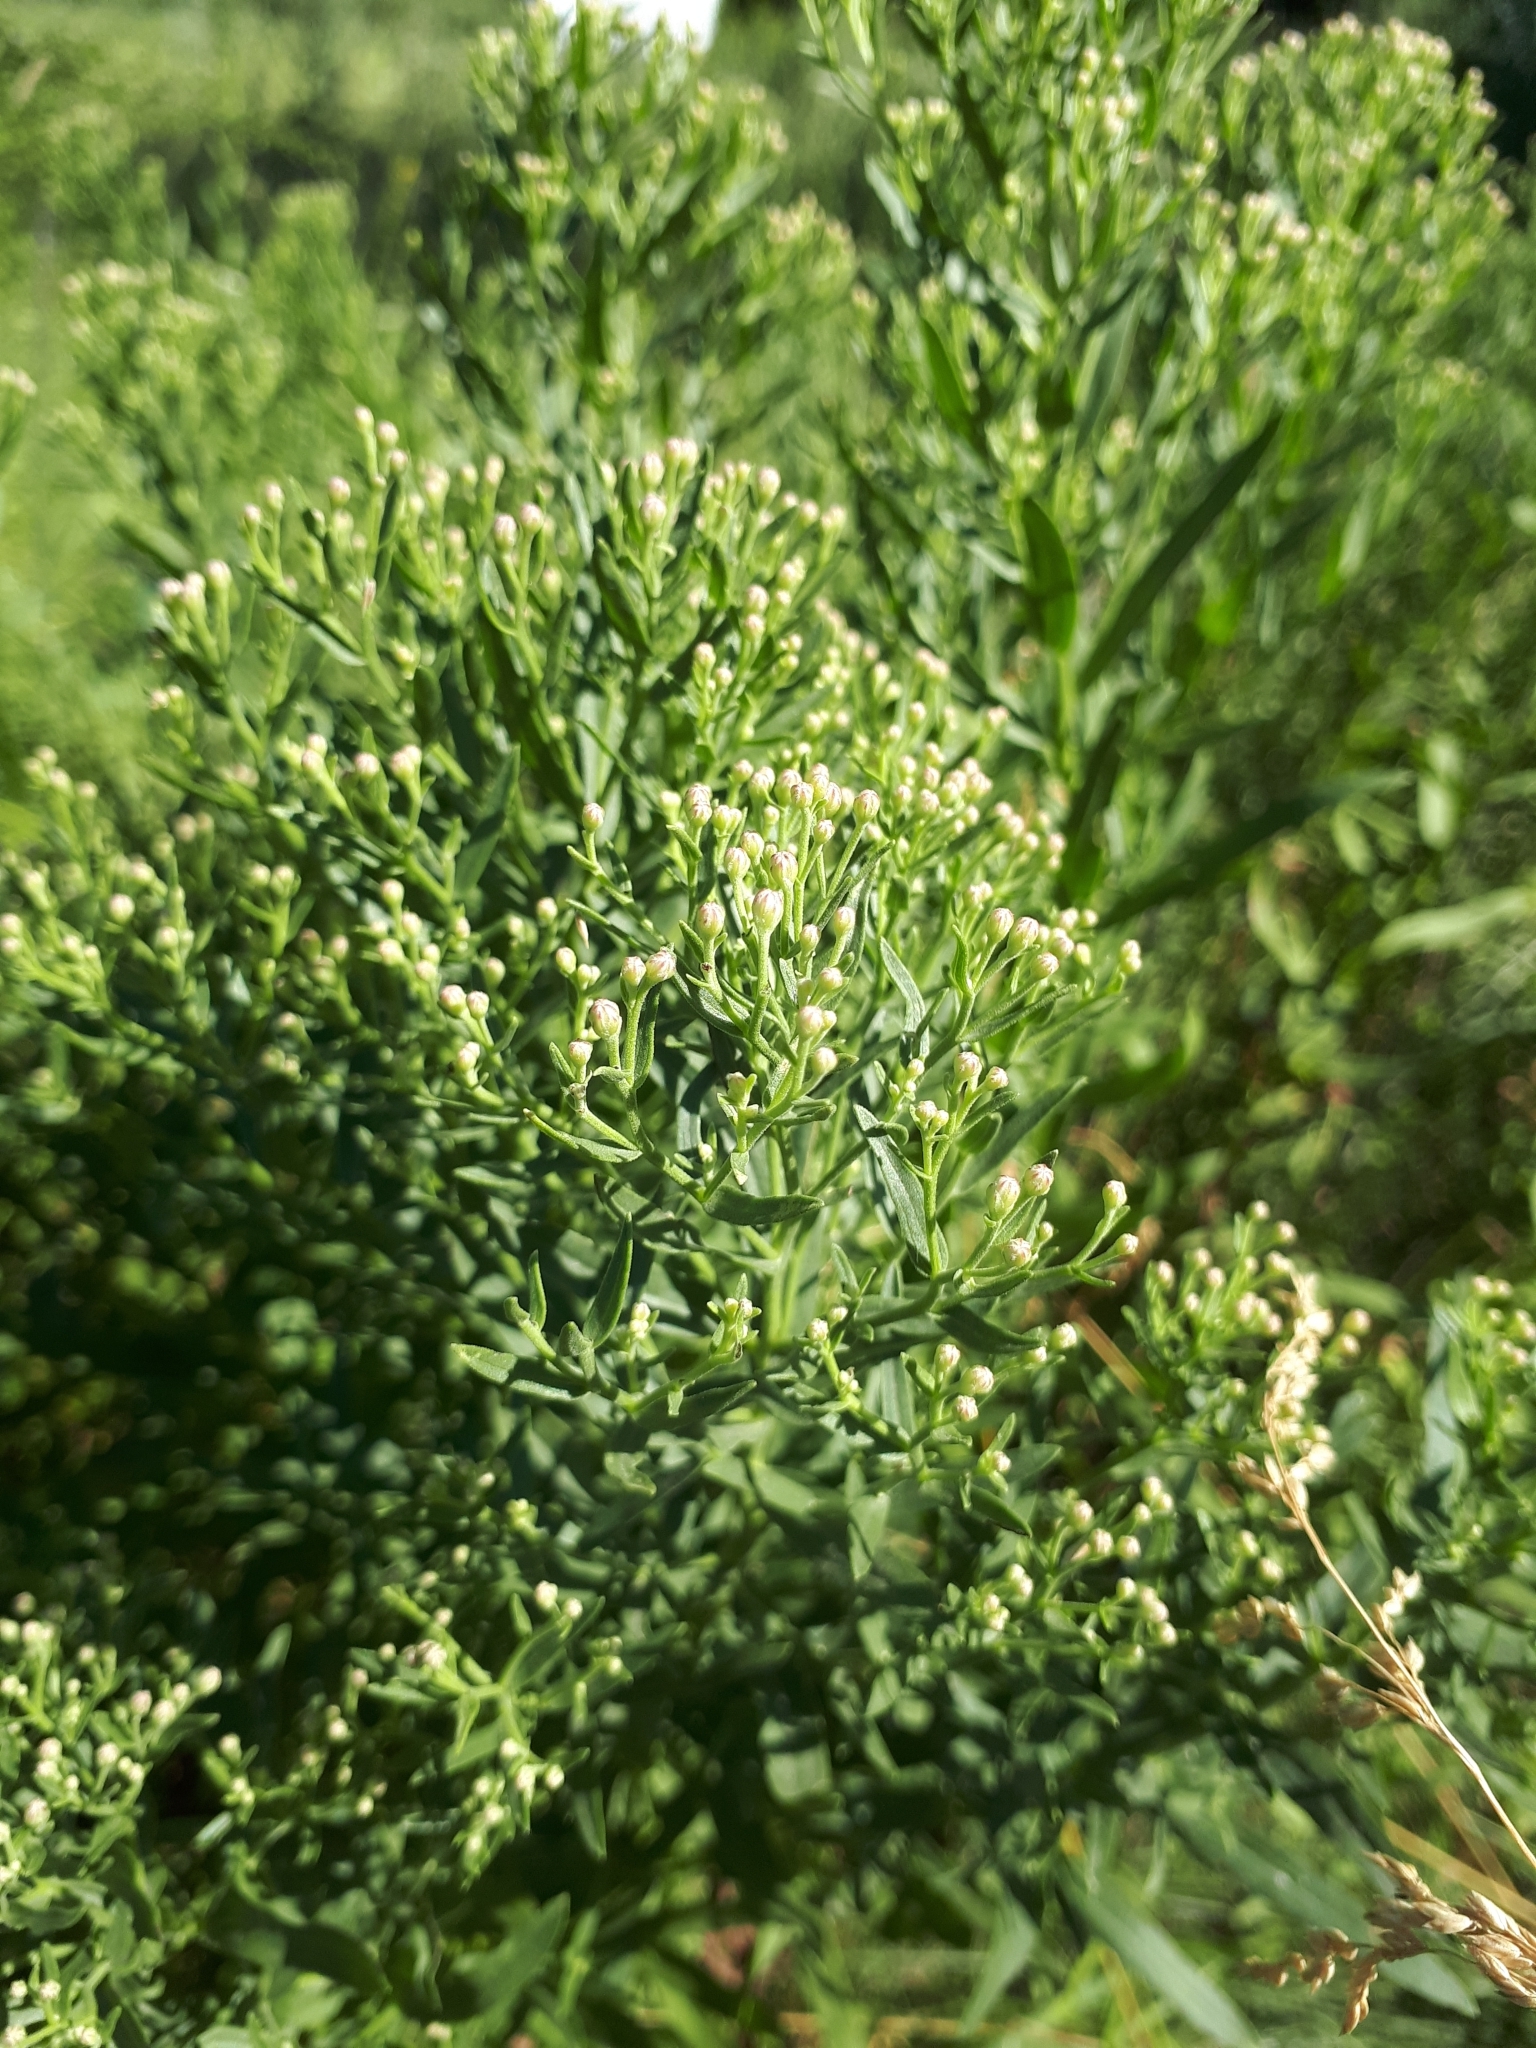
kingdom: Plantae
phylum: Tracheophyta
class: Magnoliopsida
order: Asterales
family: Asteraceae
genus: Erigeron
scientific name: Erigeron canadensis
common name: Canadian fleabane
